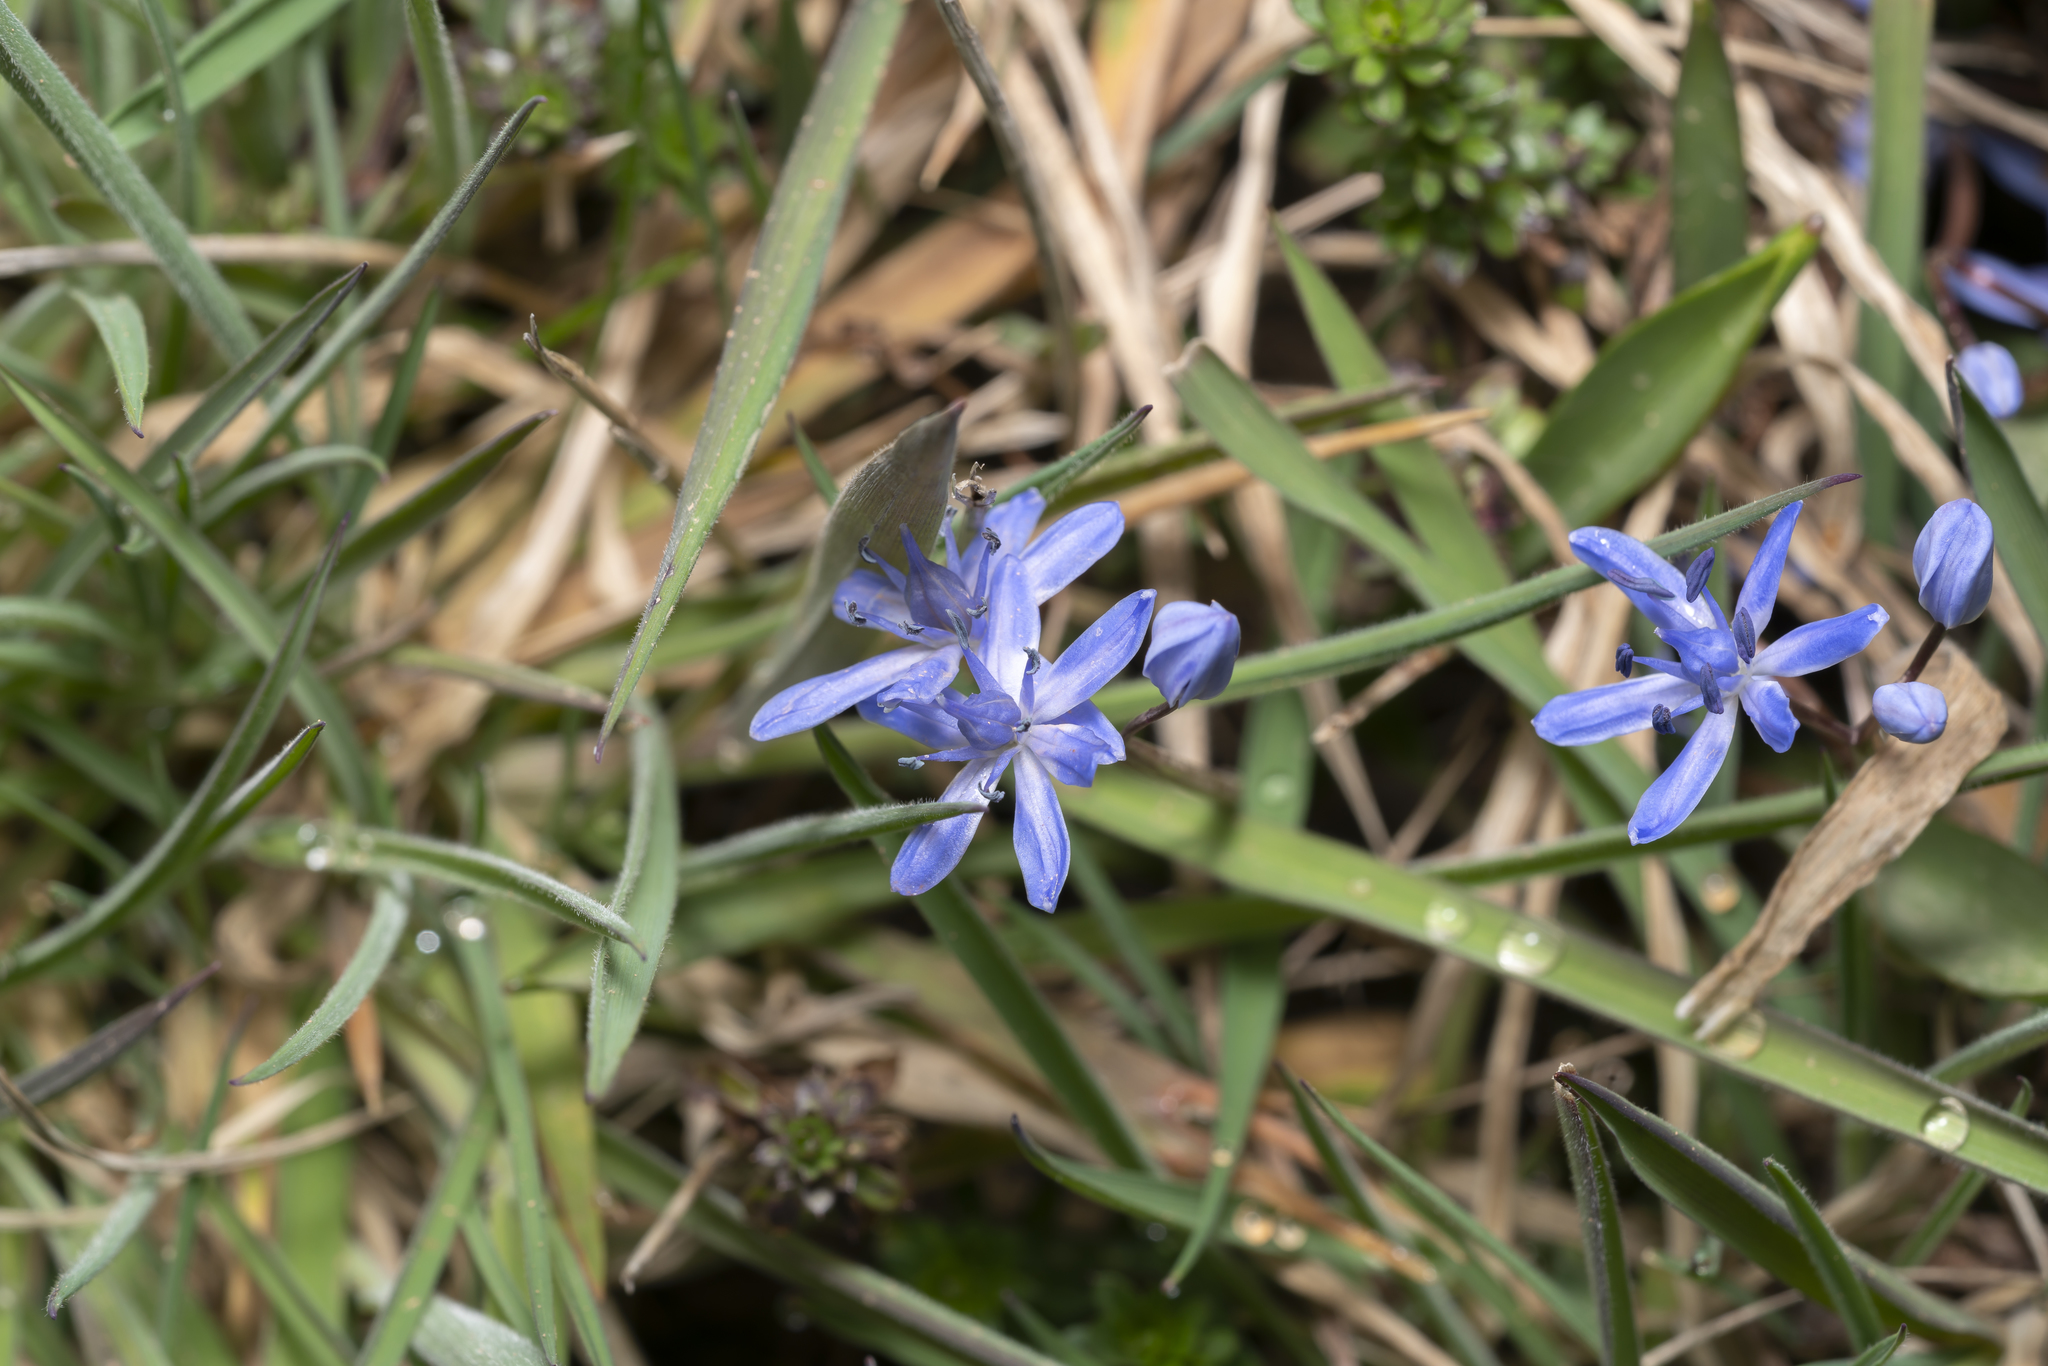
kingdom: Plantae
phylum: Tracheophyta
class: Liliopsida
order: Asparagales
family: Asparagaceae
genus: Scilla
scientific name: Scilla bifolia
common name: Alpine squill
